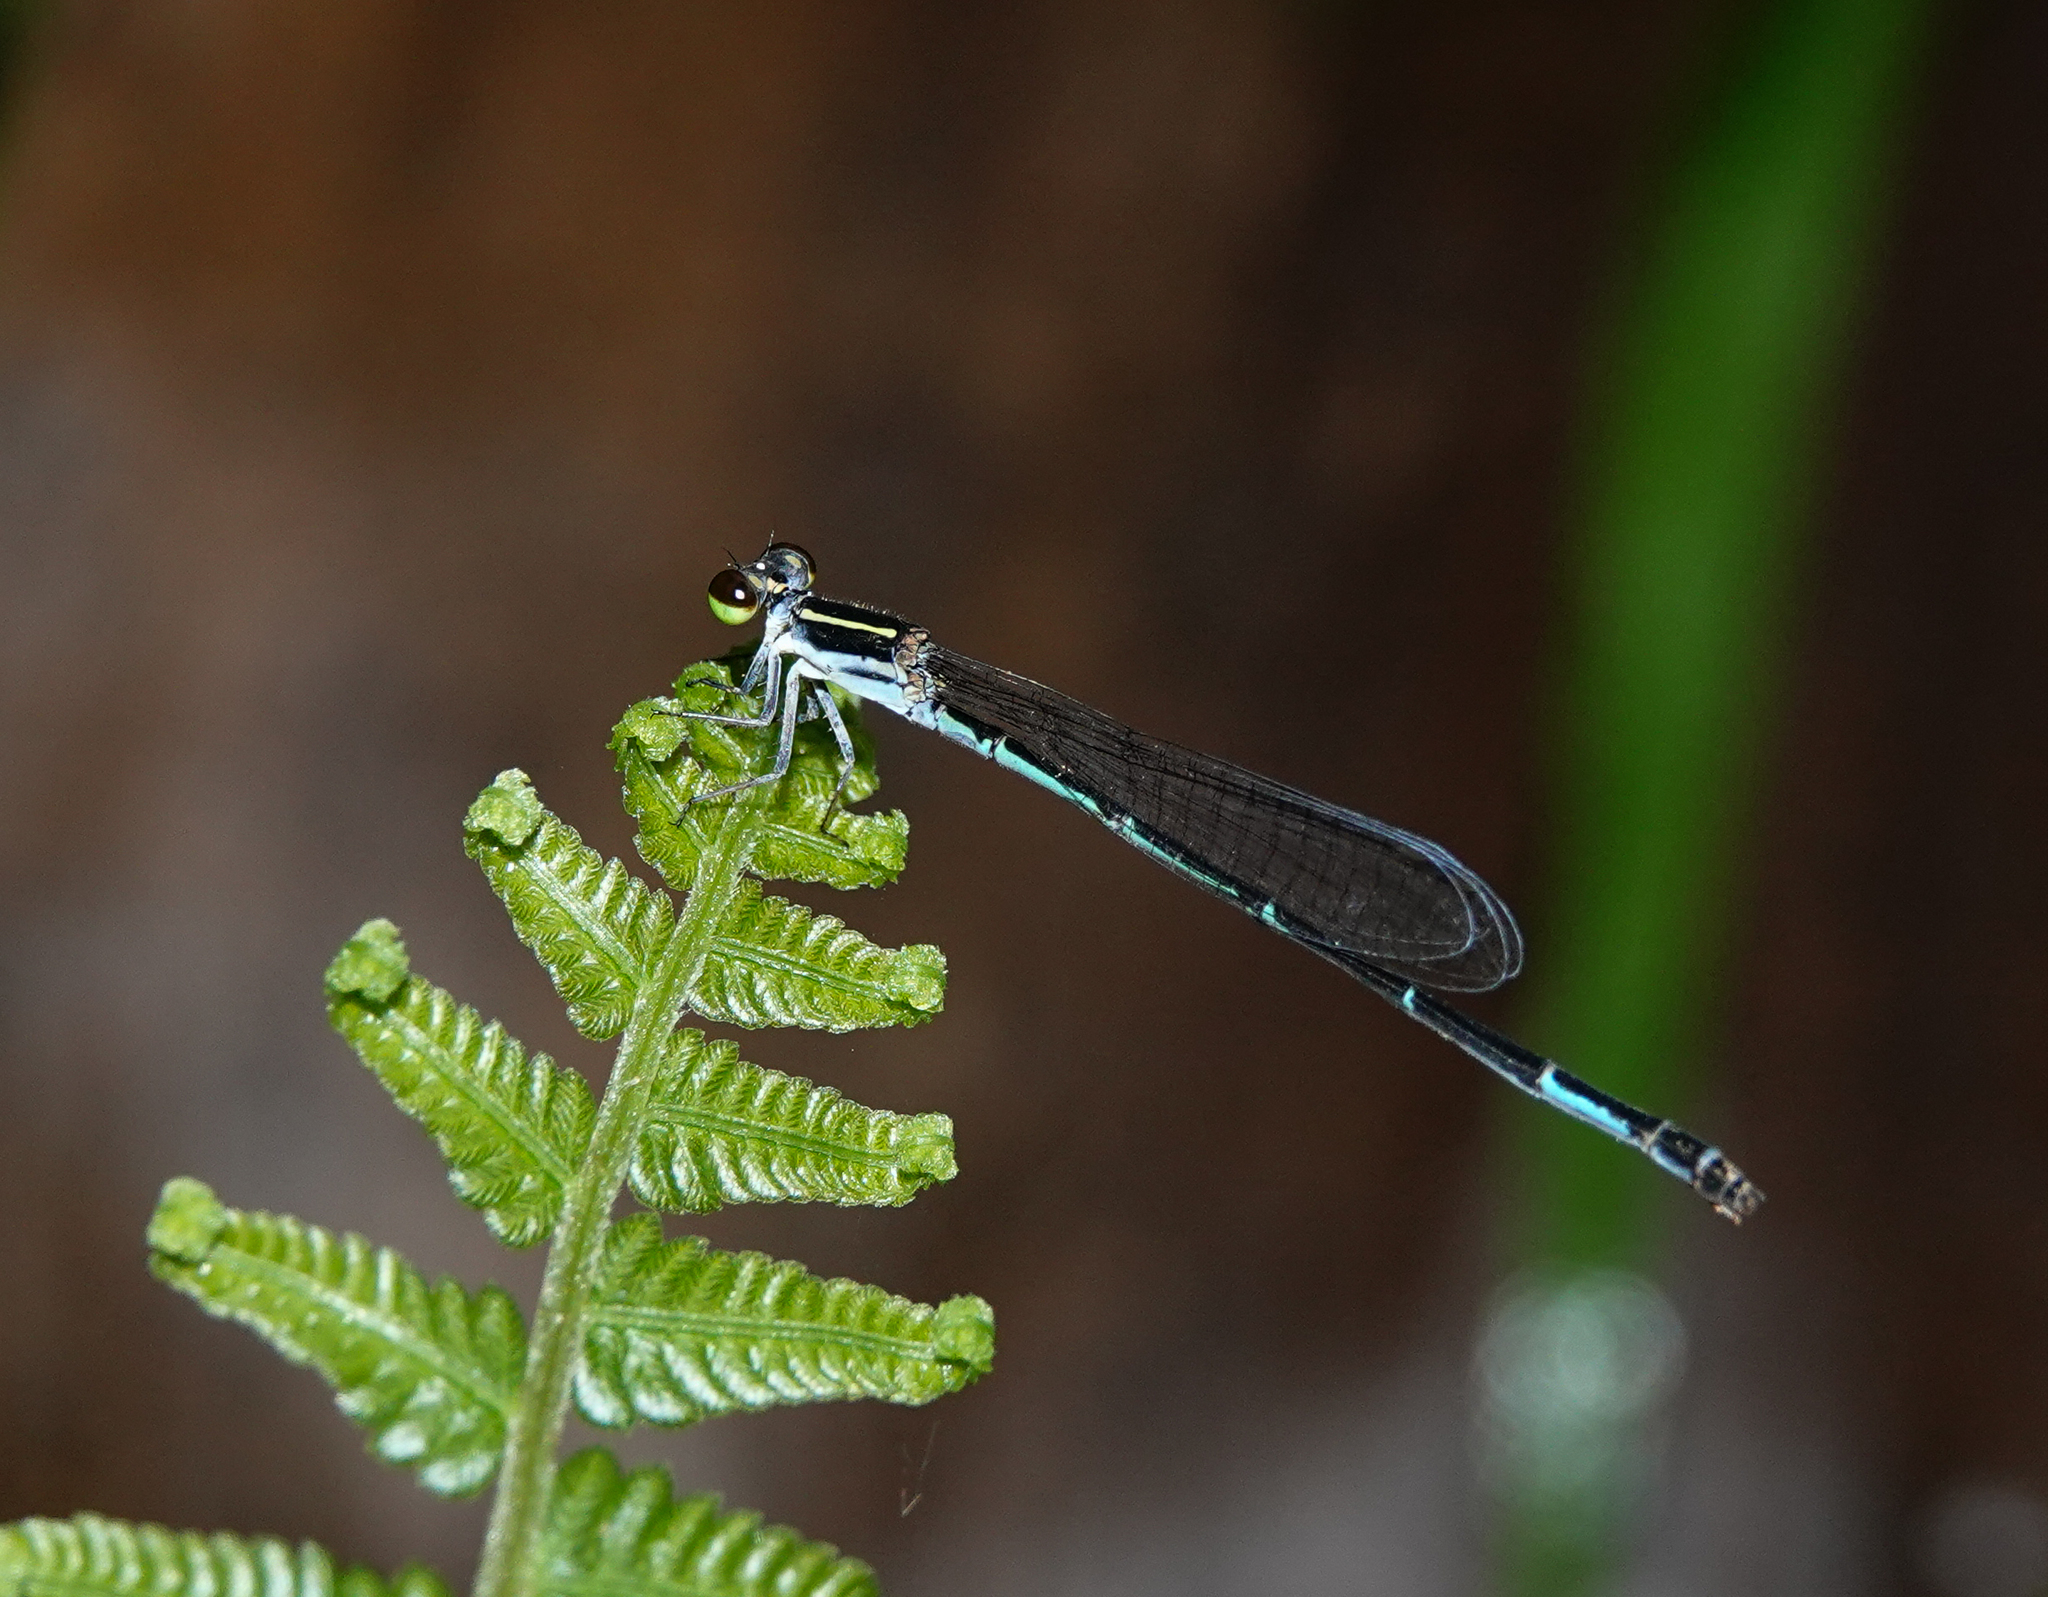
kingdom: Animalia
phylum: Arthropoda
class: Insecta
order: Odonata
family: Coenagrionidae
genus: Mortonagrion
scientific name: Mortonagrion aborense
